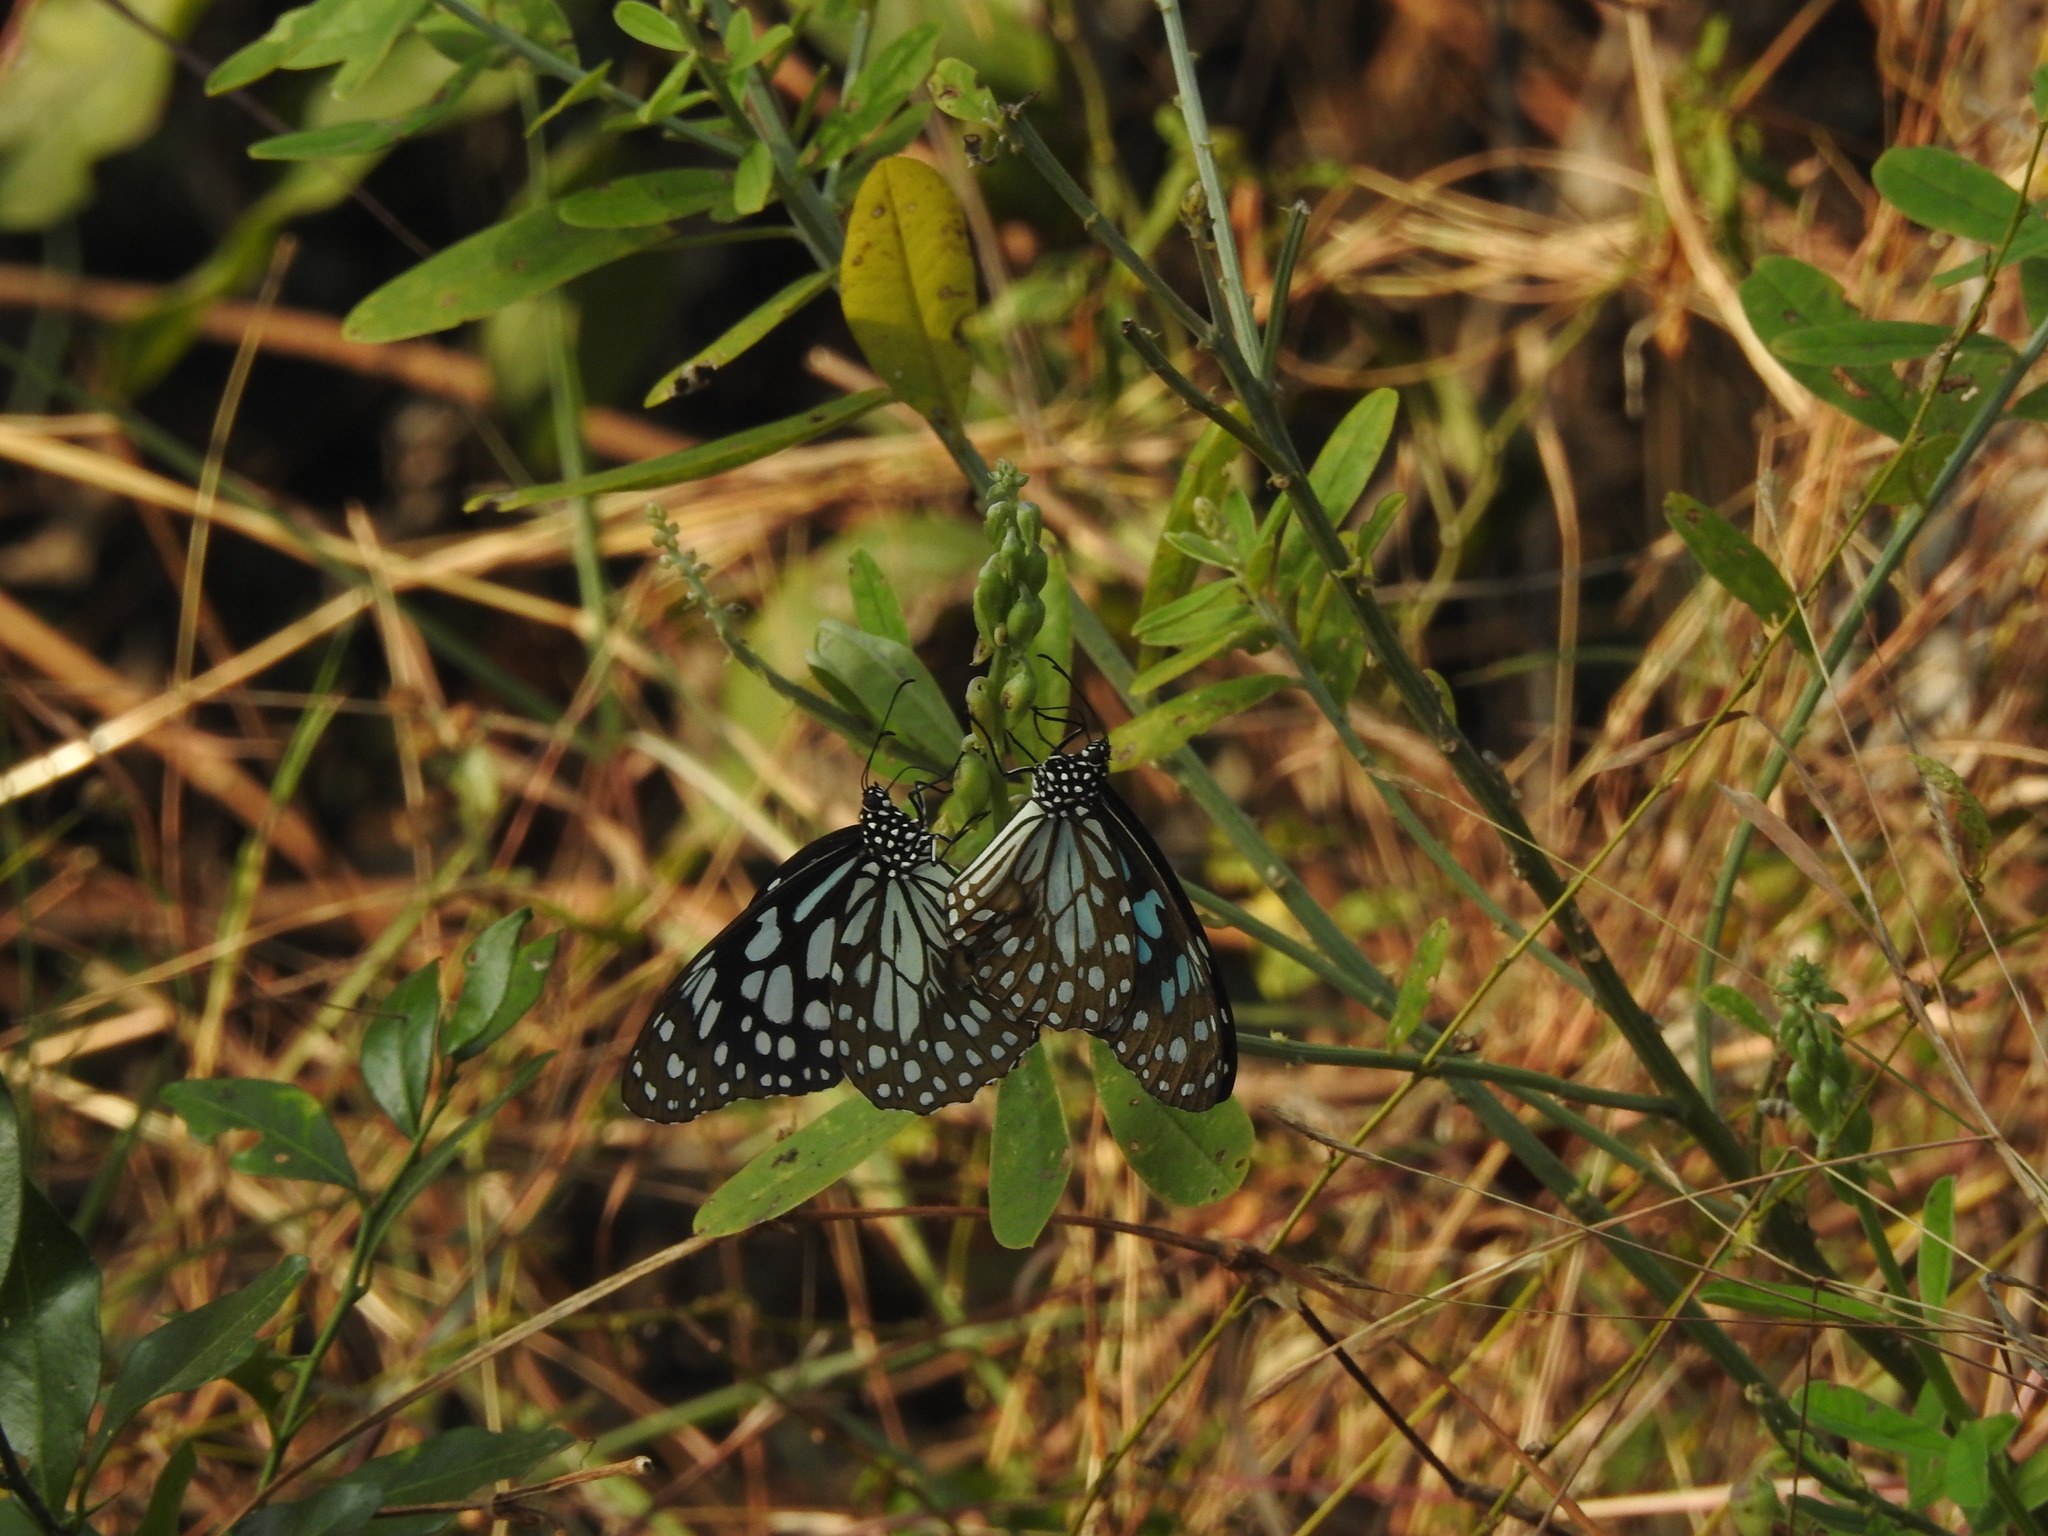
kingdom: Animalia
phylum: Arthropoda
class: Insecta
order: Lepidoptera
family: Nymphalidae
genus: Tirumala
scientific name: Tirumala limniace
